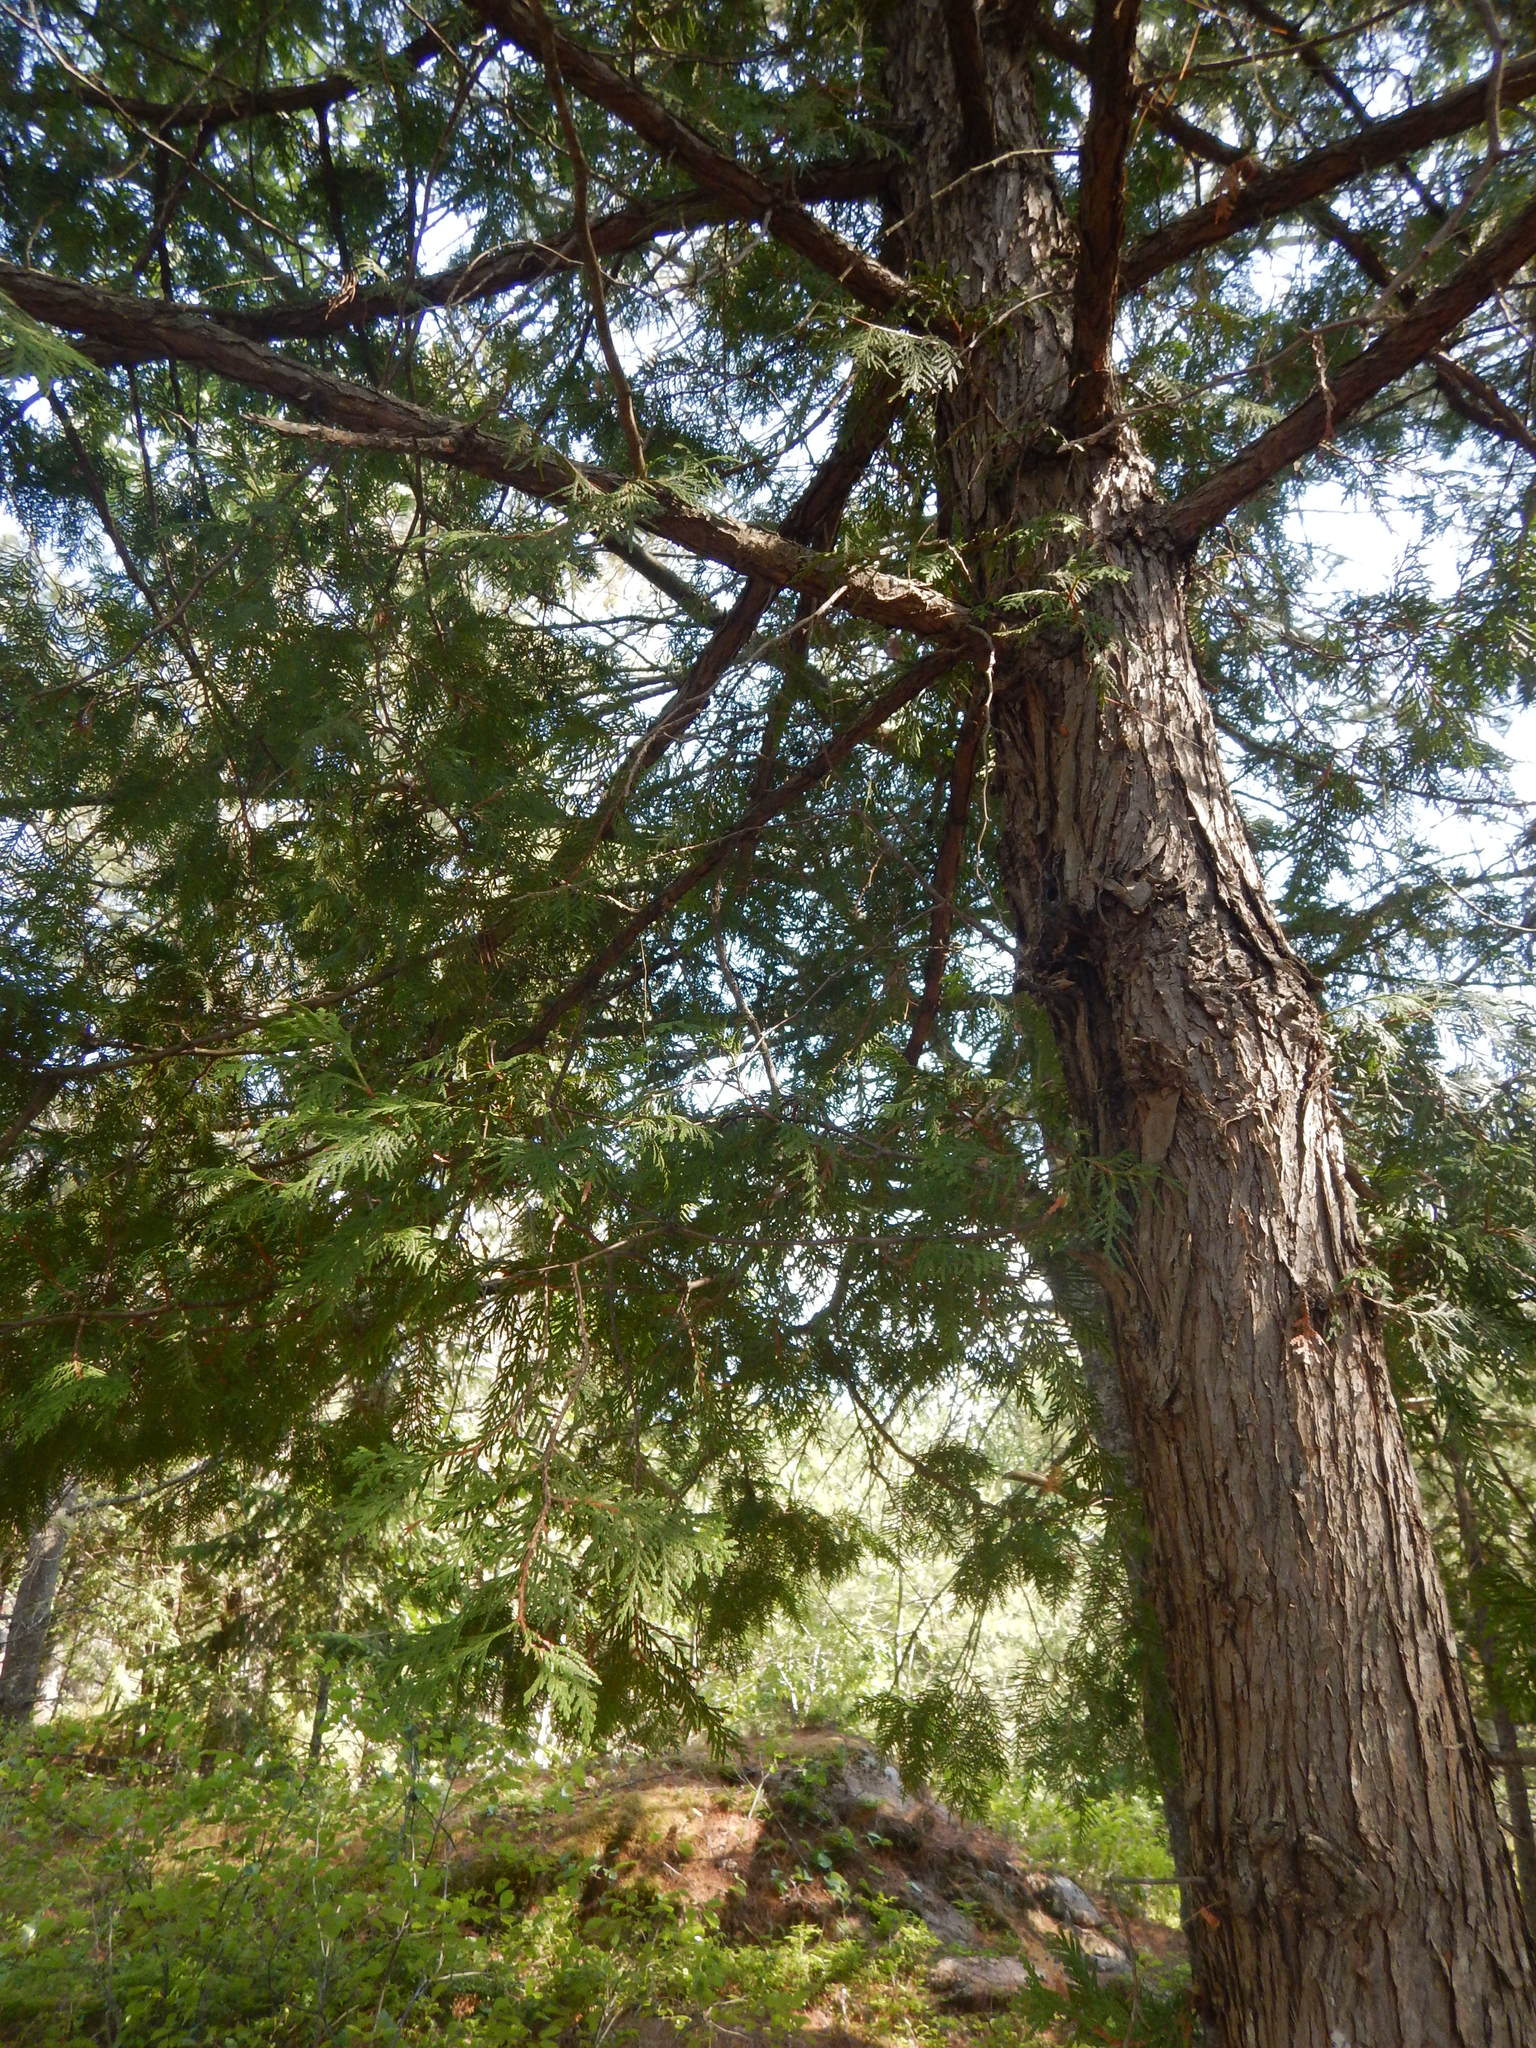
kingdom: Plantae
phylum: Tracheophyta
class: Pinopsida
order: Pinales
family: Cupressaceae
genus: Thuja
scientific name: Thuja occidentalis
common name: Northern white-cedar
